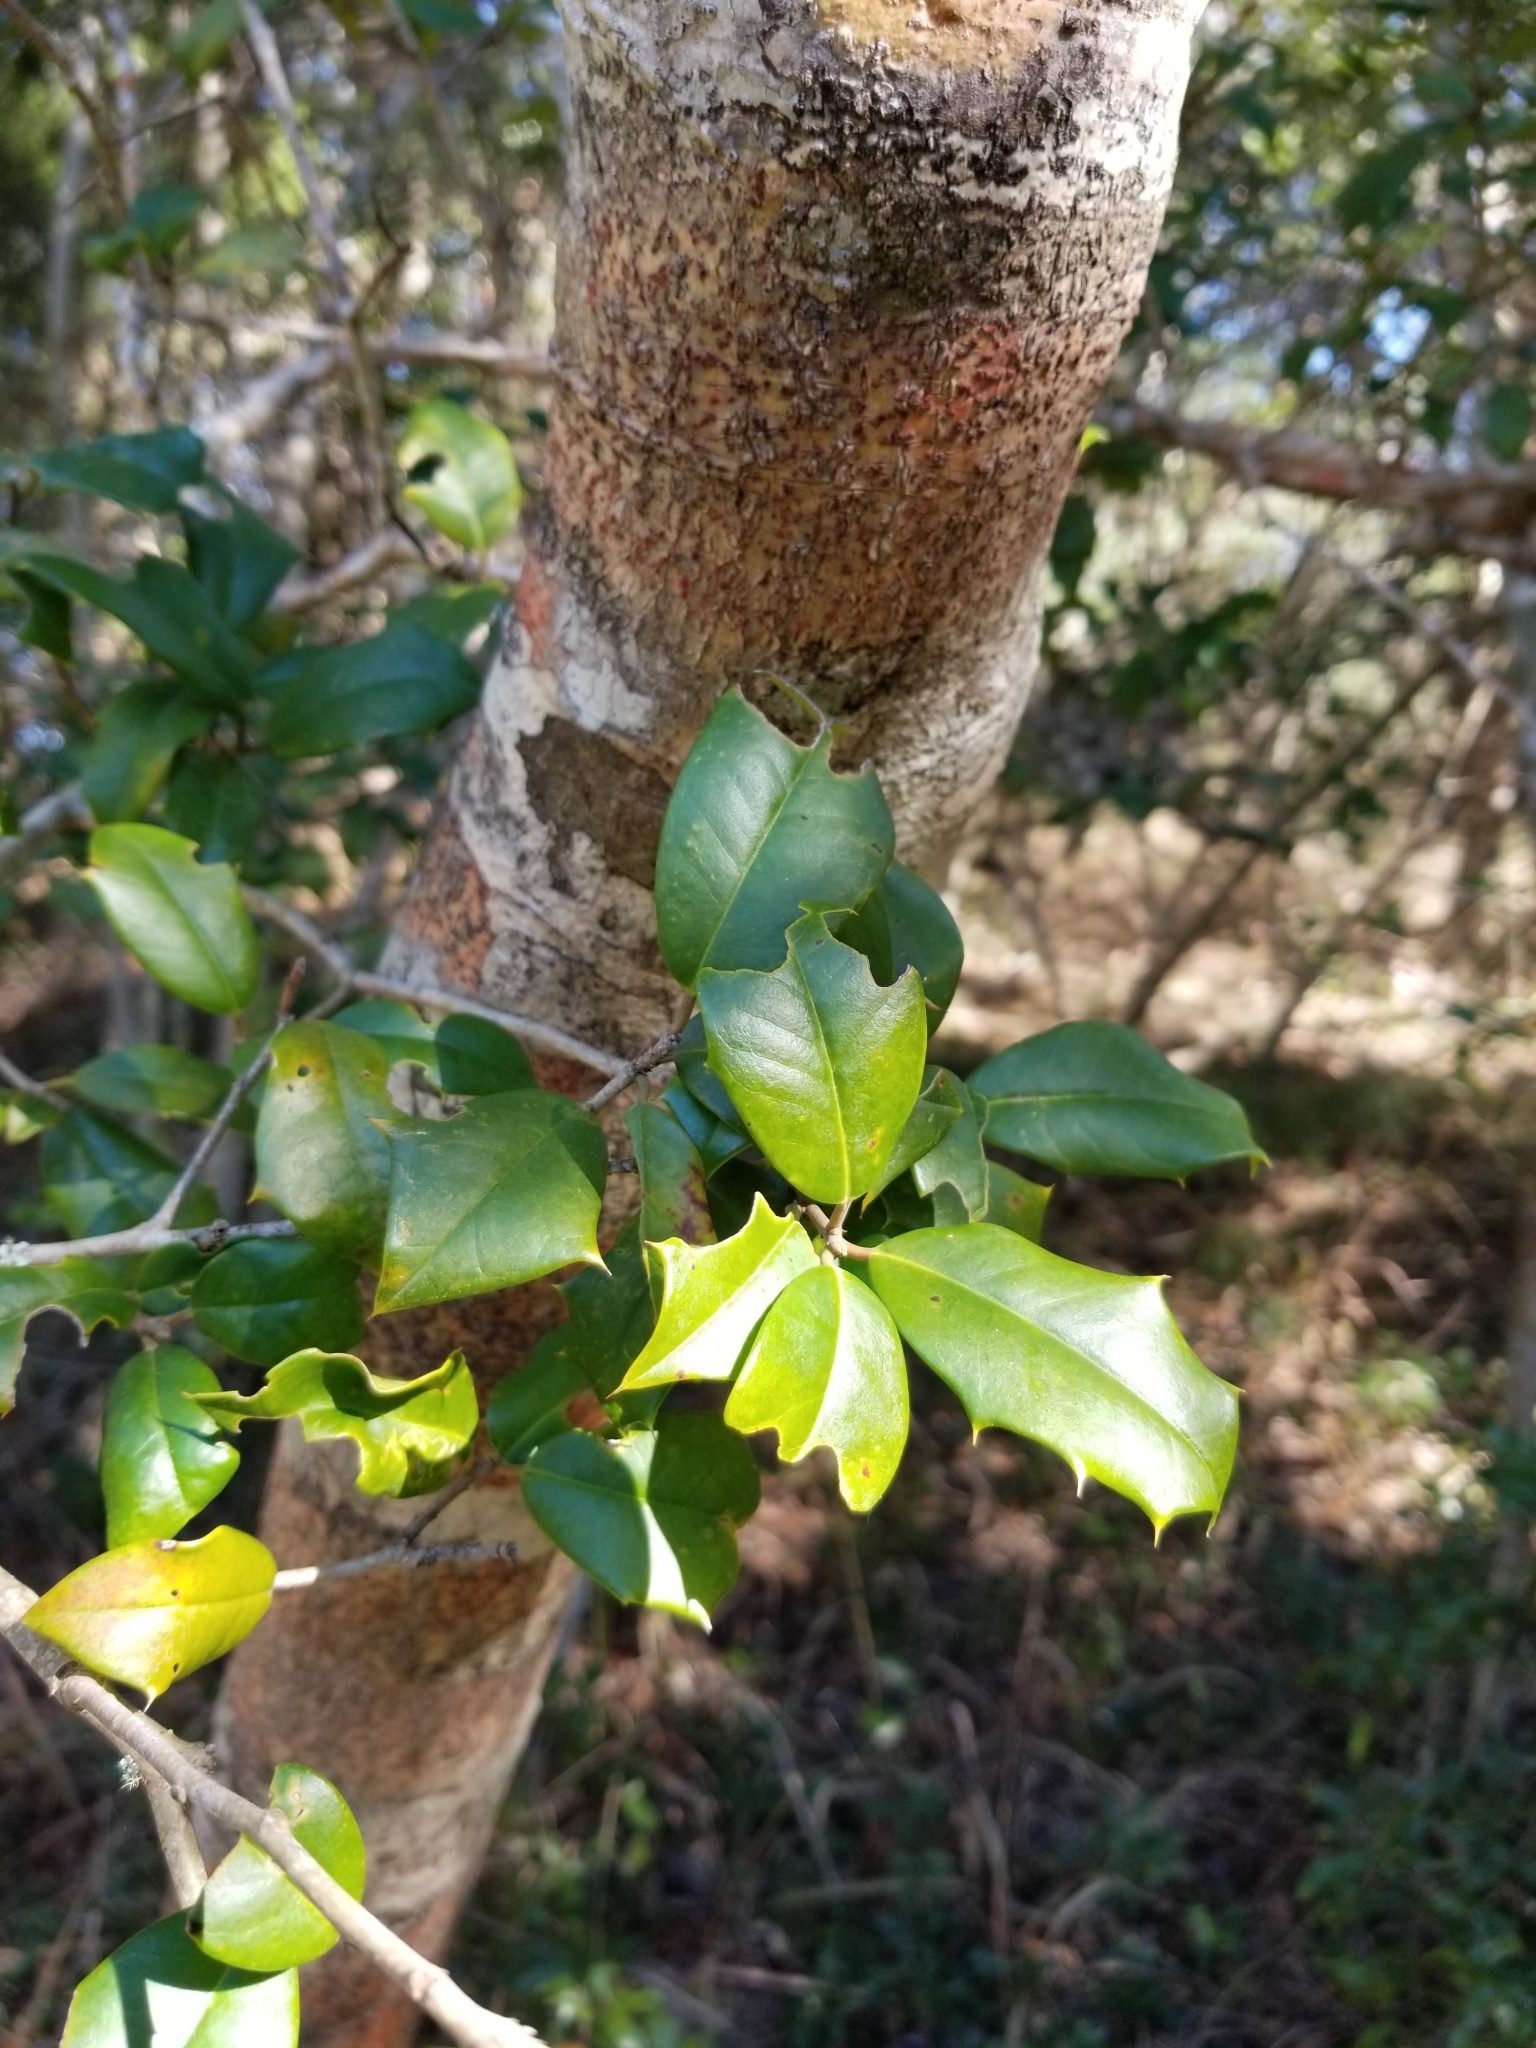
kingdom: Plantae
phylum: Tracheophyta
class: Magnoliopsida
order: Aquifoliales
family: Aquifoliaceae
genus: Ilex
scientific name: Ilex opaca
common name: American holly
